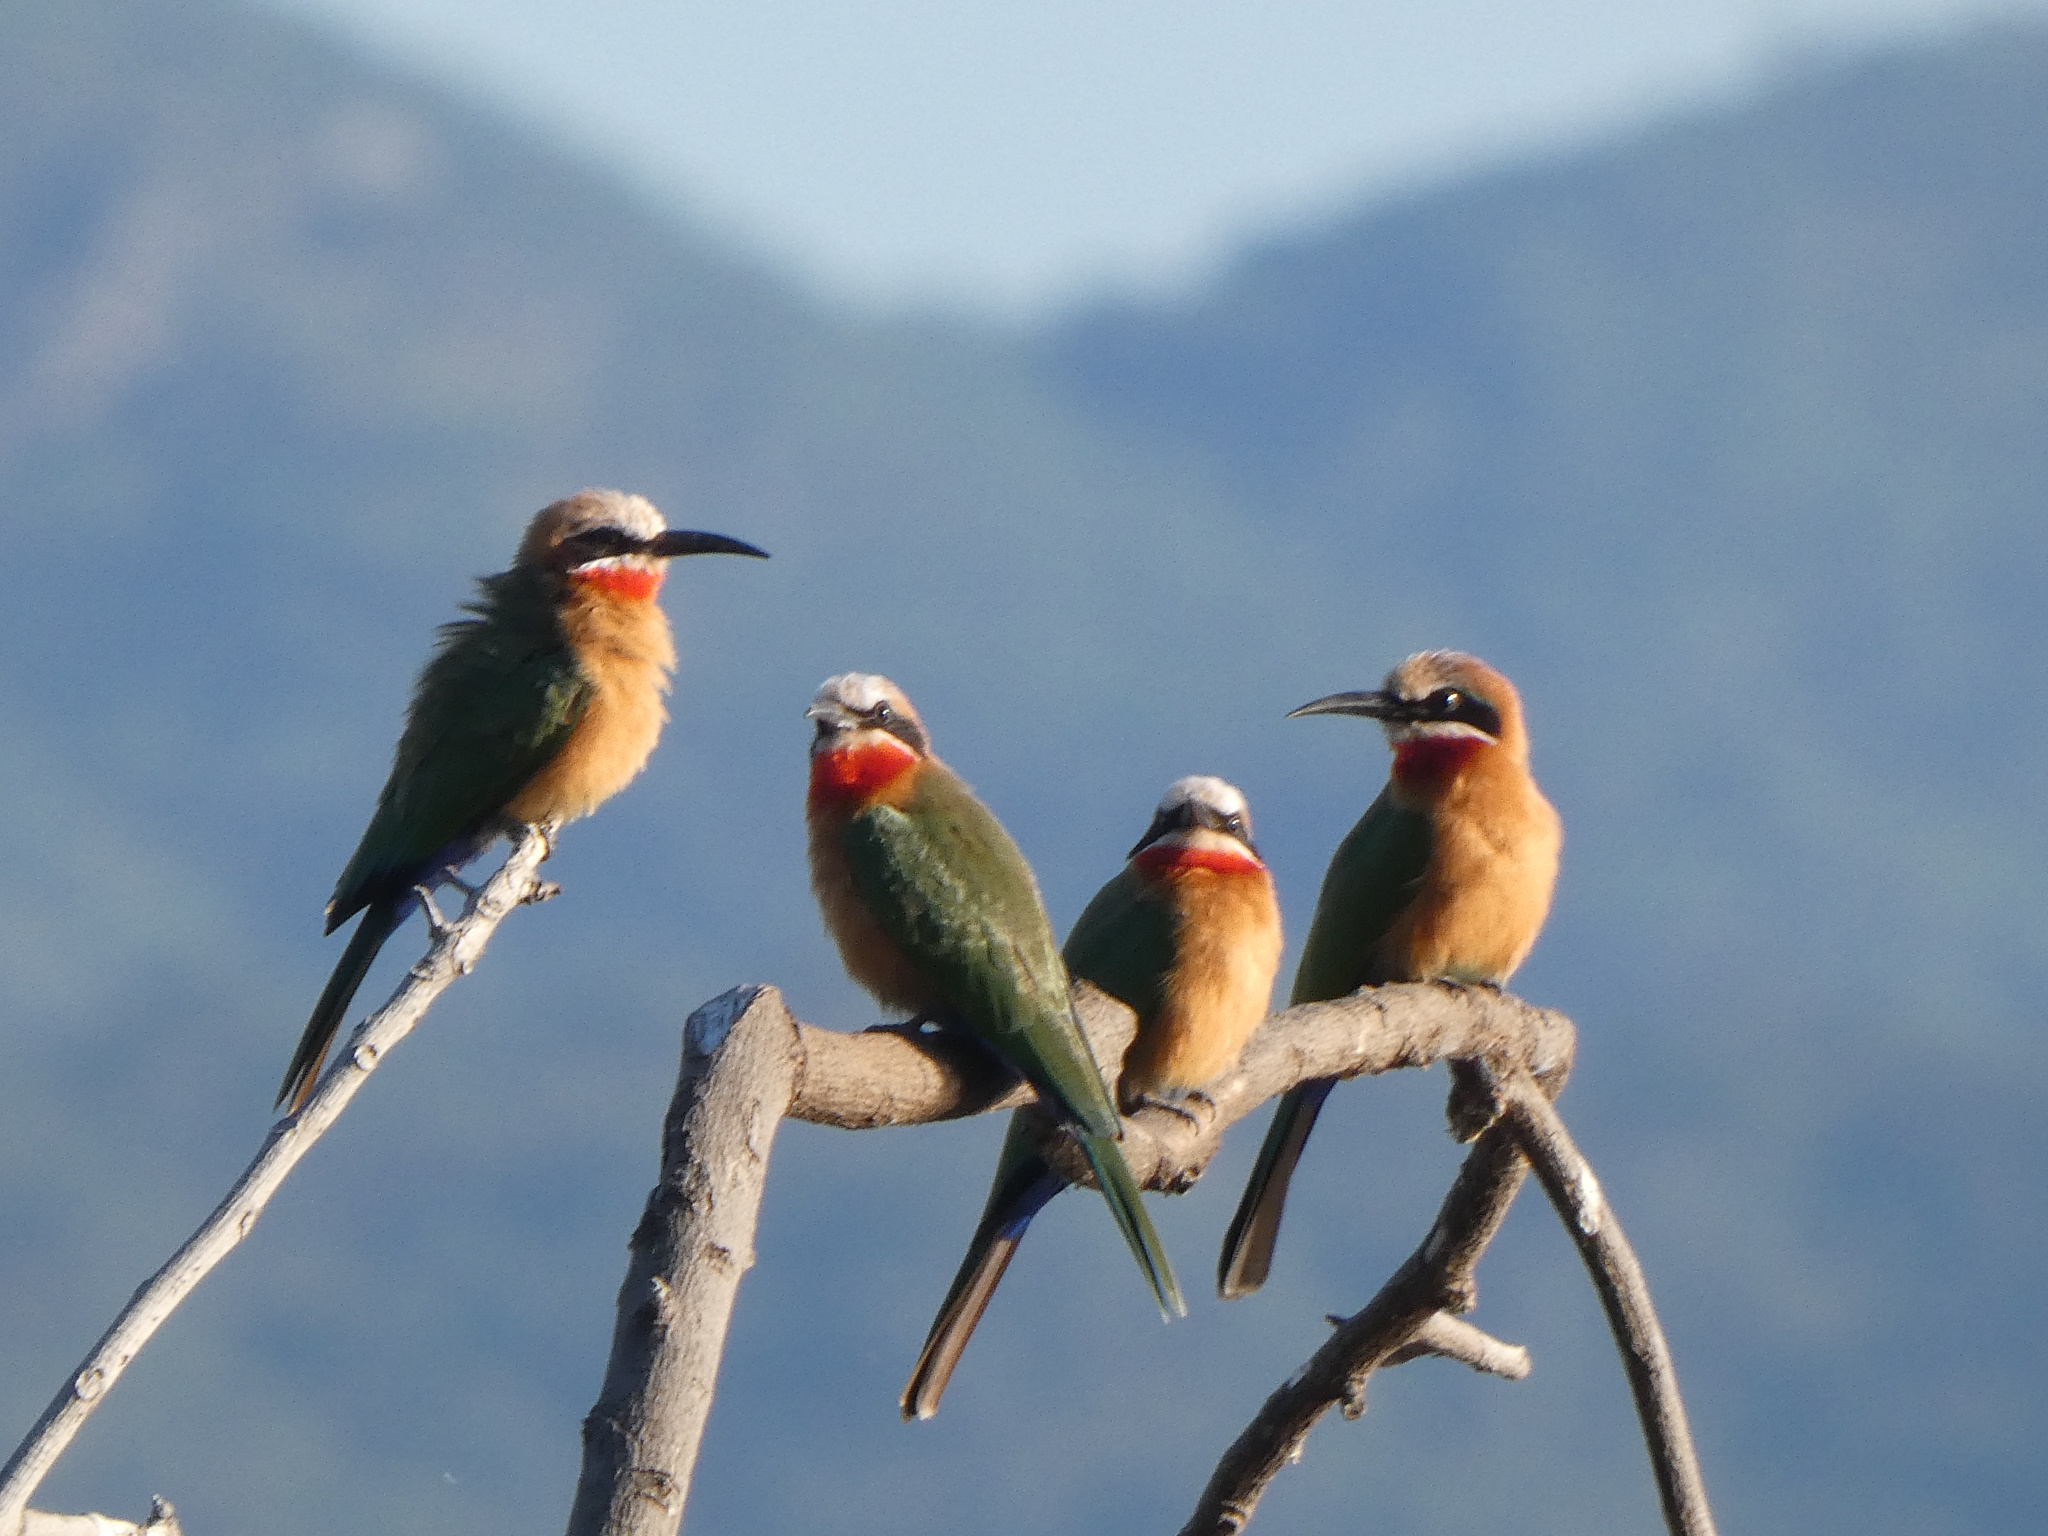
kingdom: Animalia
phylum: Chordata
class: Aves
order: Coraciiformes
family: Meropidae
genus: Merops
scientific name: Merops bullockoides
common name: White-fronted bee-eater
